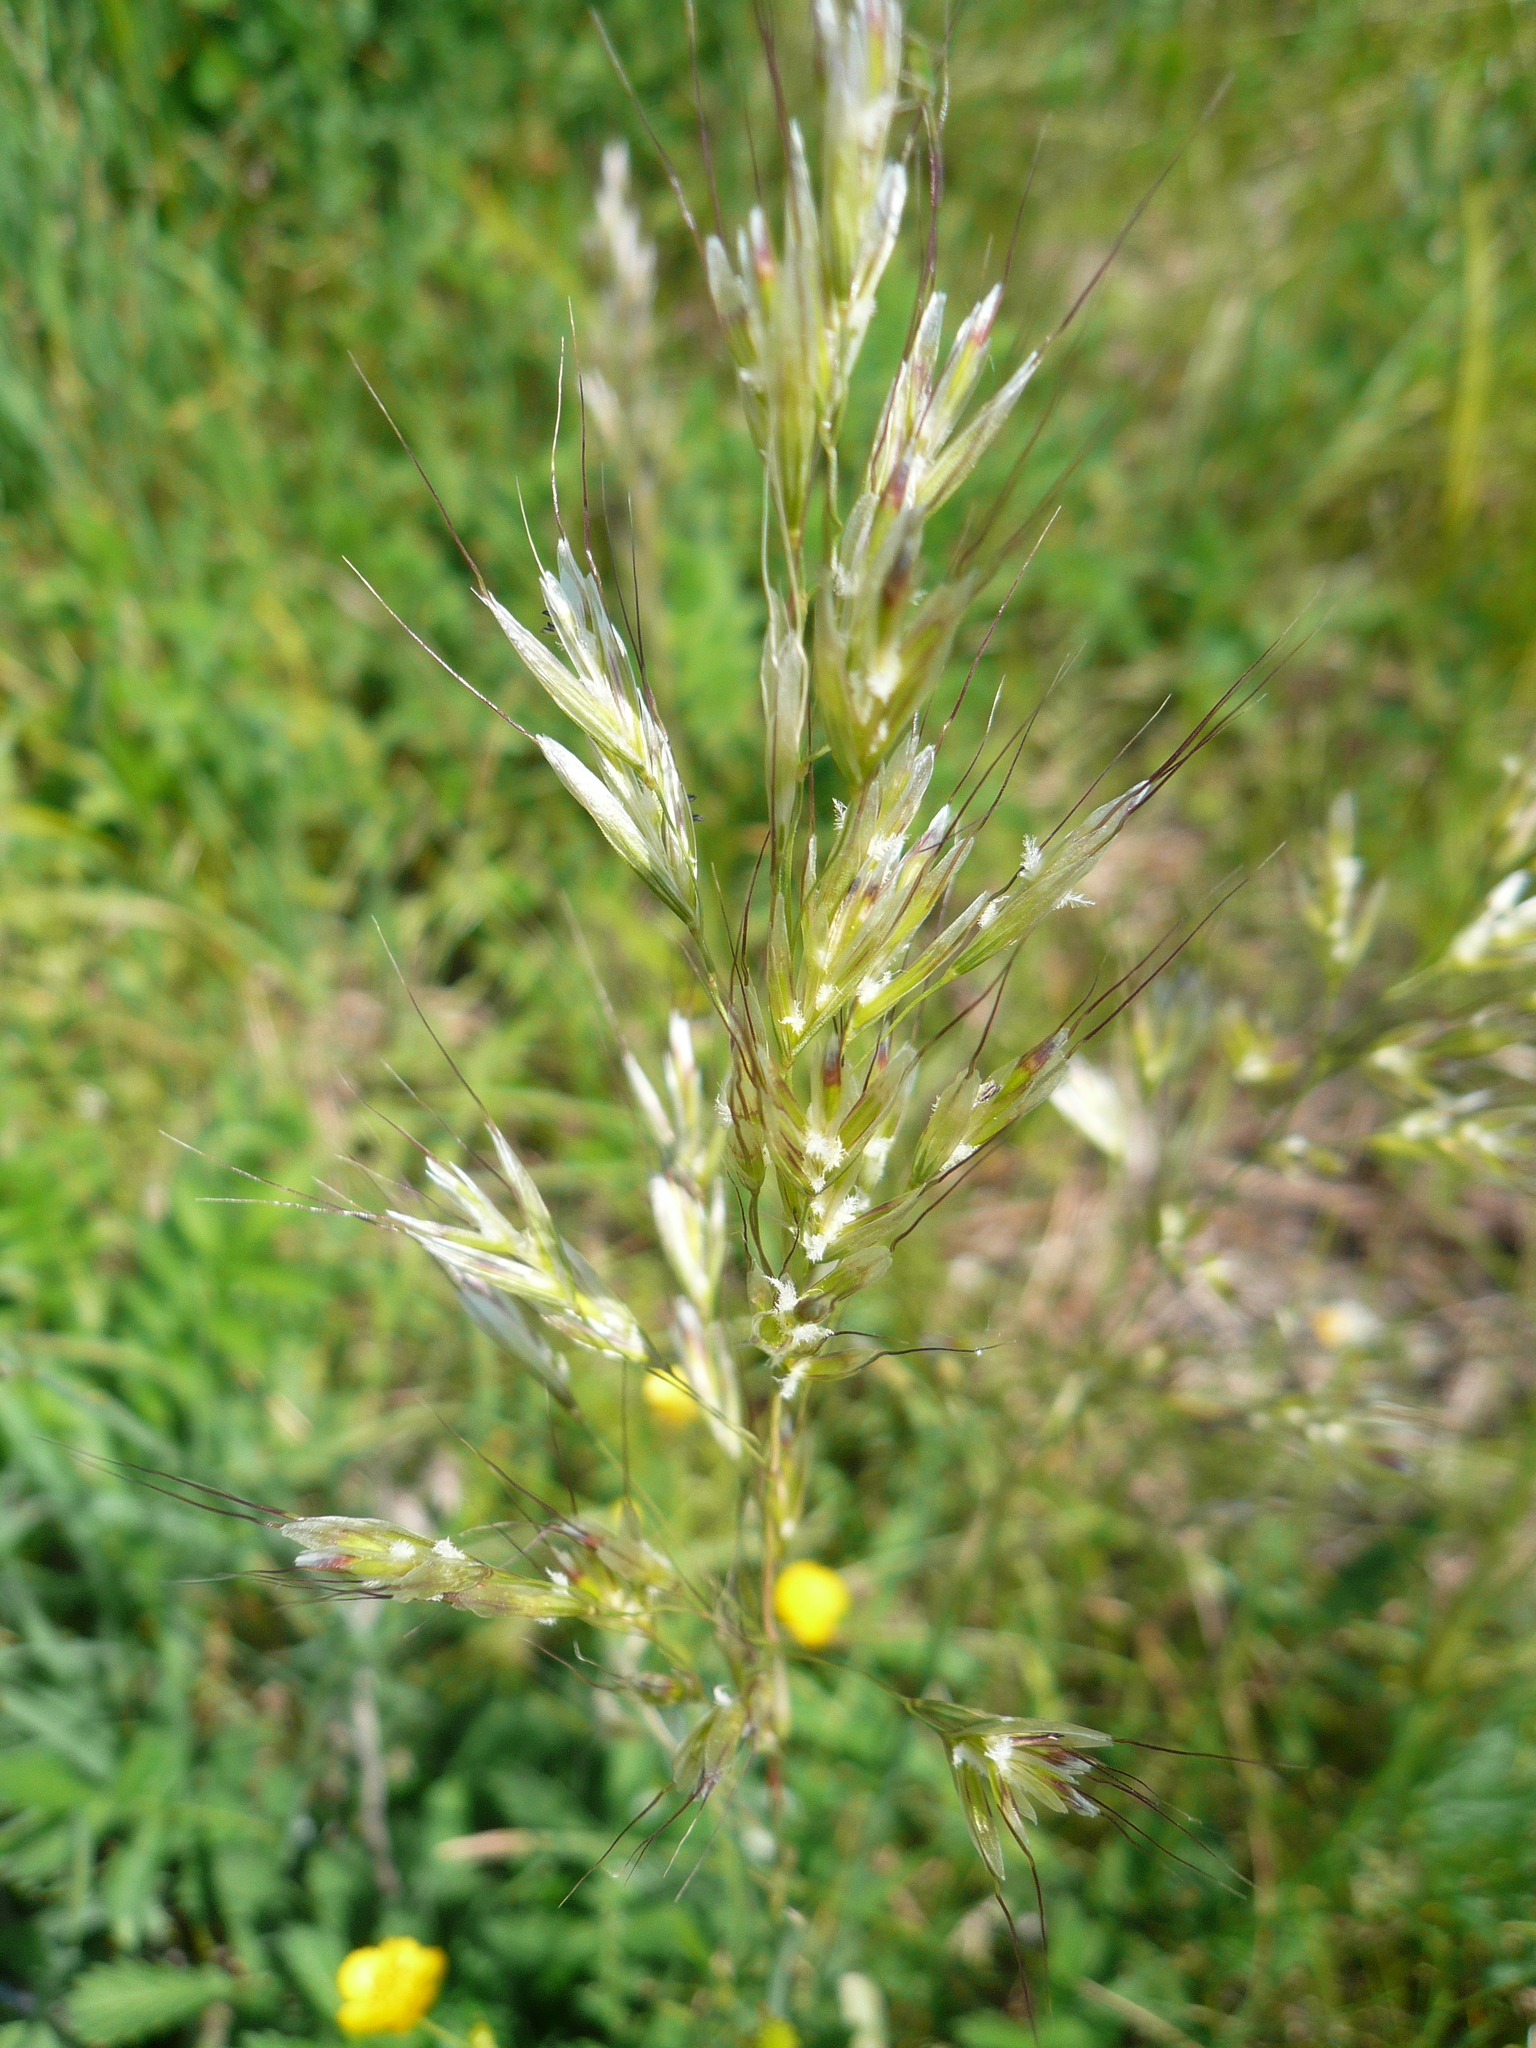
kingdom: Plantae
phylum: Tracheophyta
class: Liliopsida
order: Poales
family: Poaceae
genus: Arrhenatherum
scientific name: Arrhenatherum elatius
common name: Tall oatgrass
